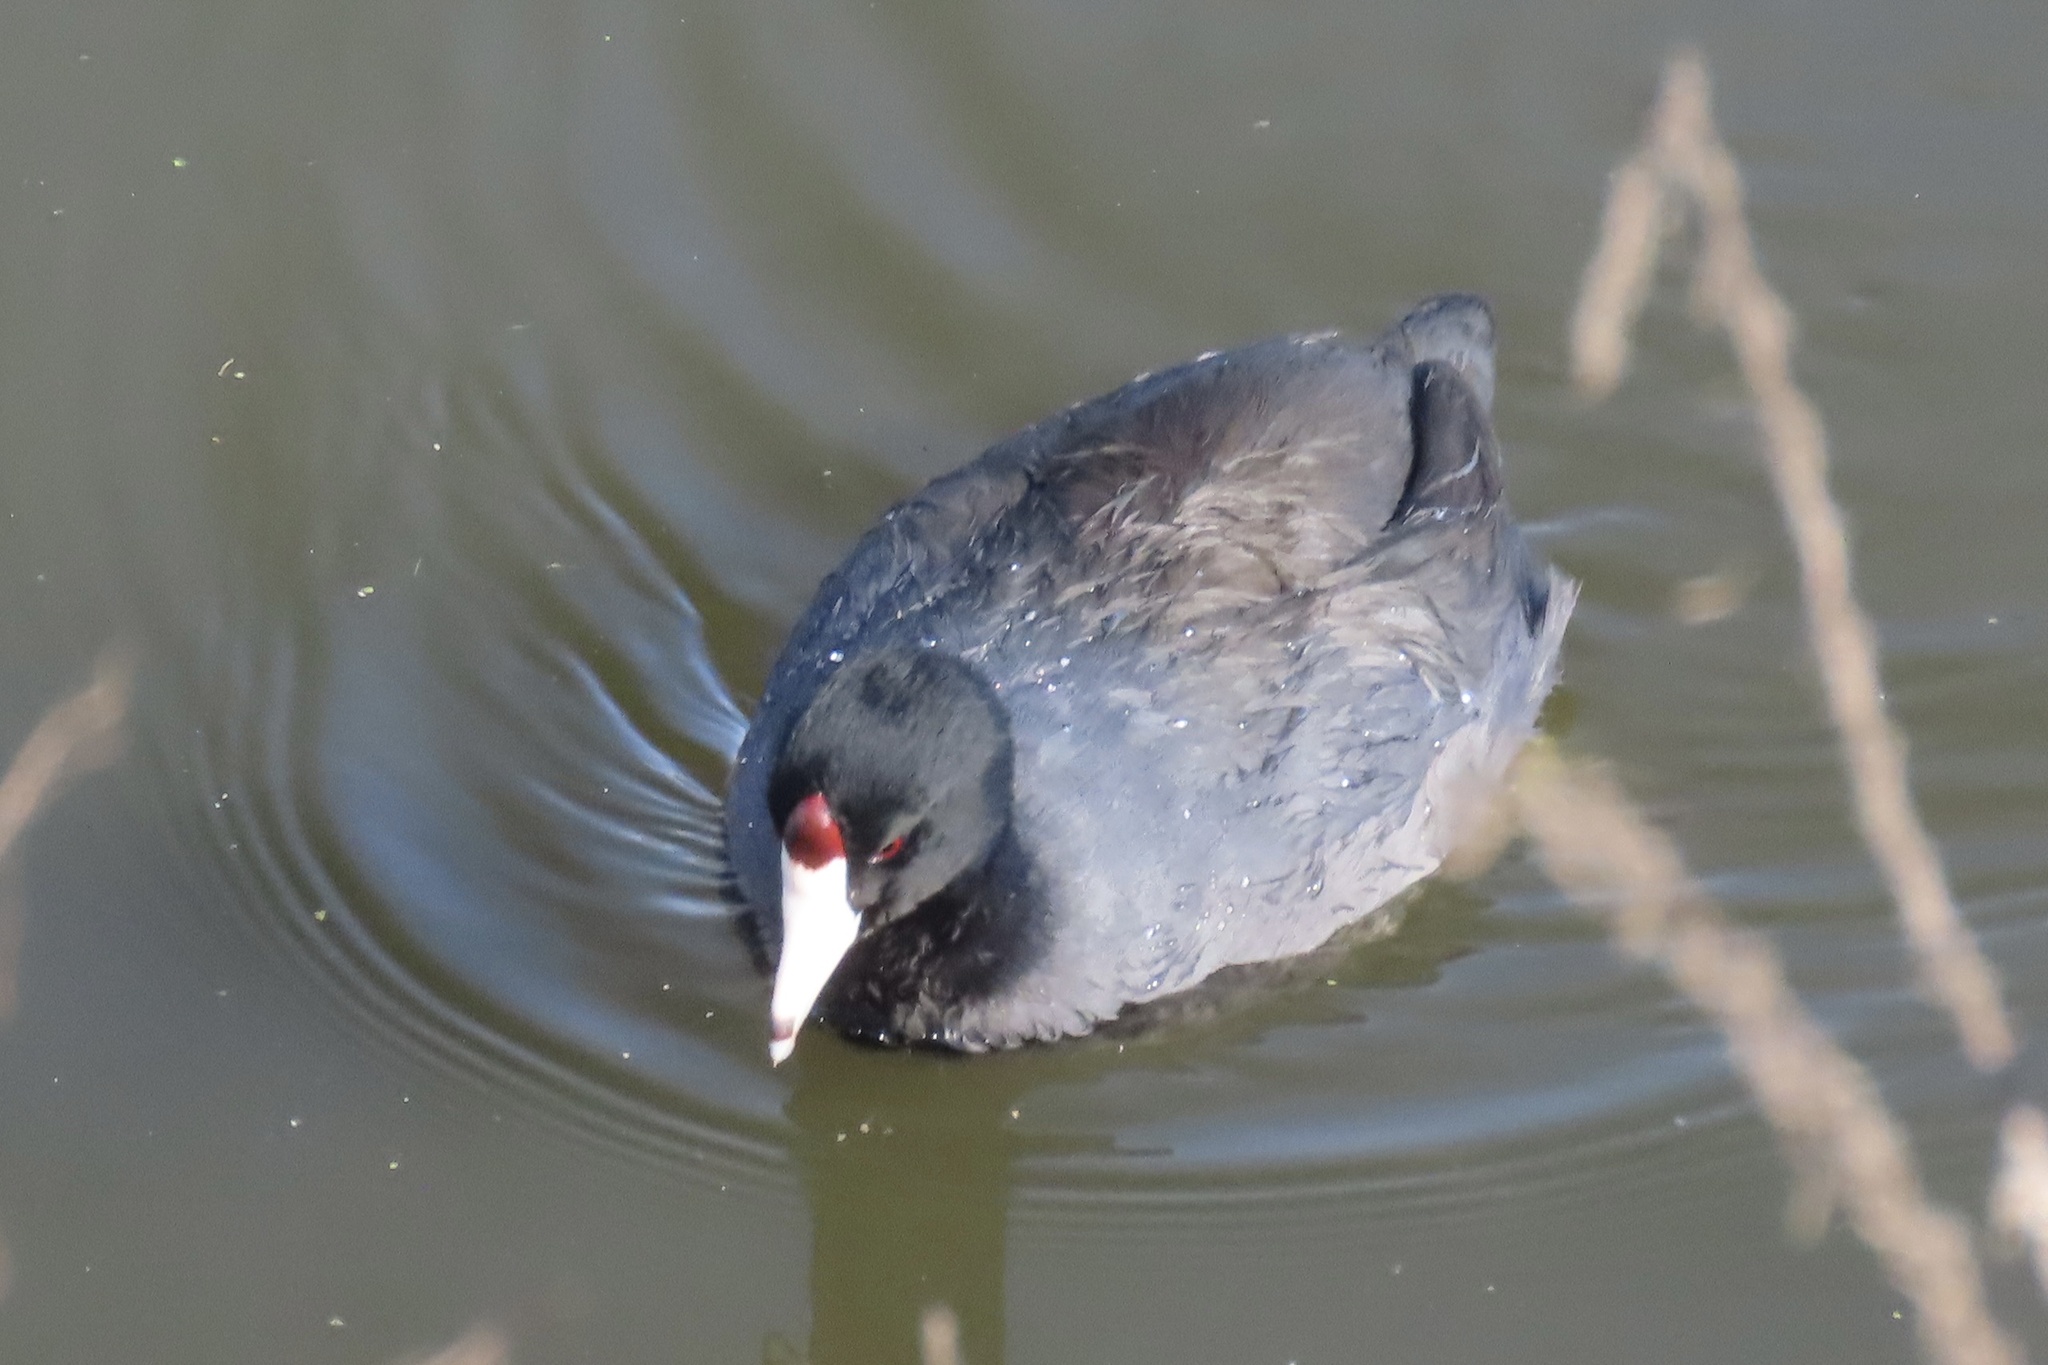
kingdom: Animalia
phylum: Chordata
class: Aves
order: Gruiformes
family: Rallidae
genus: Fulica
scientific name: Fulica americana
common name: American coot
